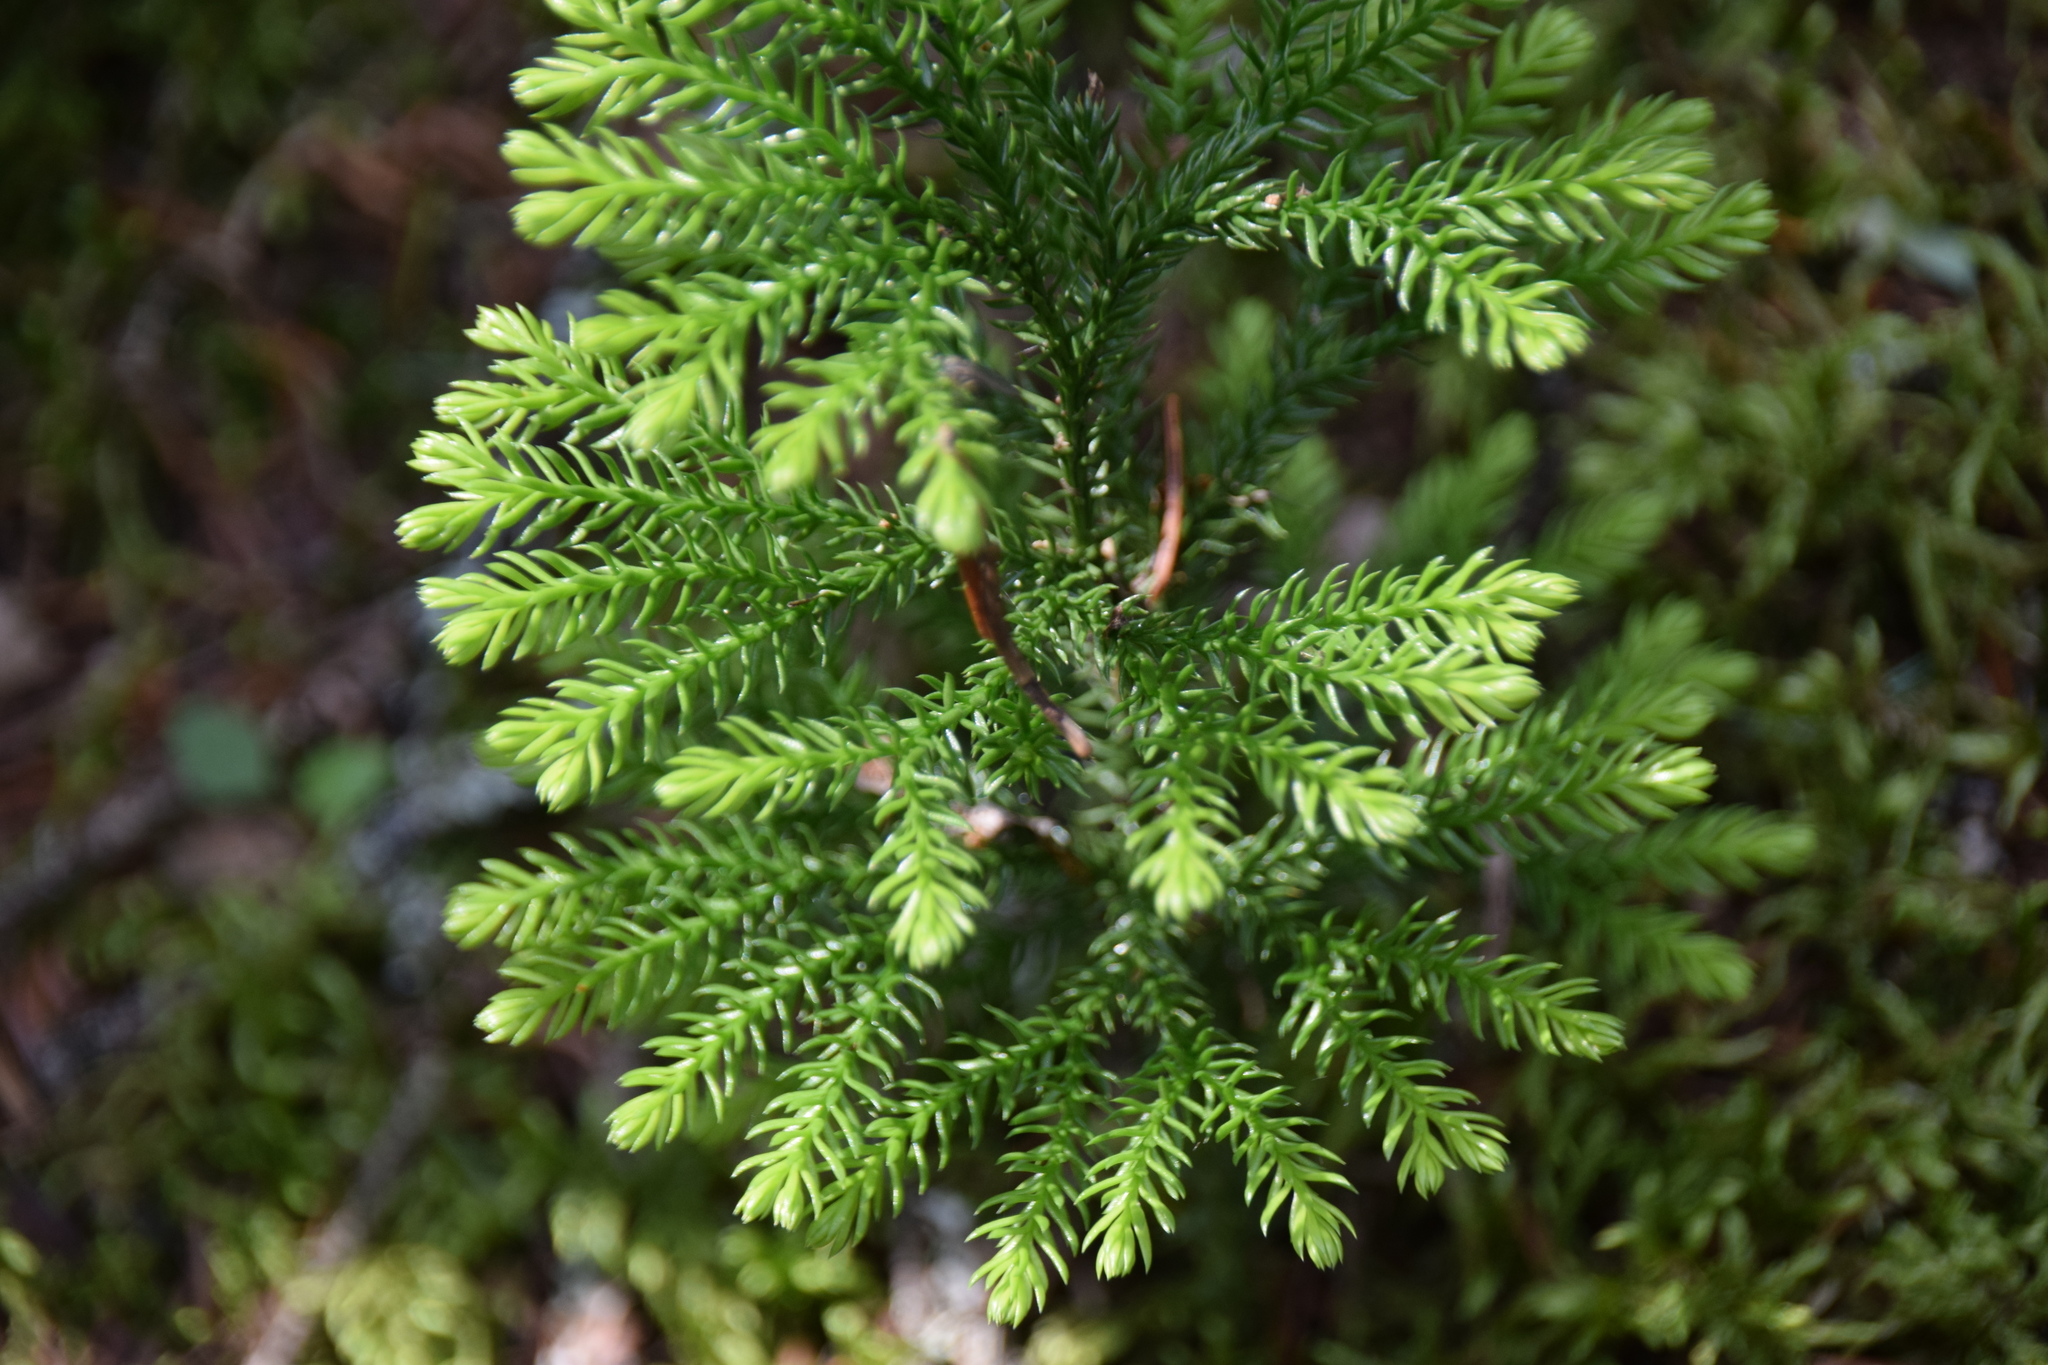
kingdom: Plantae
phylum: Tracheophyta
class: Lycopodiopsida
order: Lycopodiales
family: Lycopodiaceae
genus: Dendrolycopodium
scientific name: Dendrolycopodium dendroideum
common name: Northern tree-clubmoss
